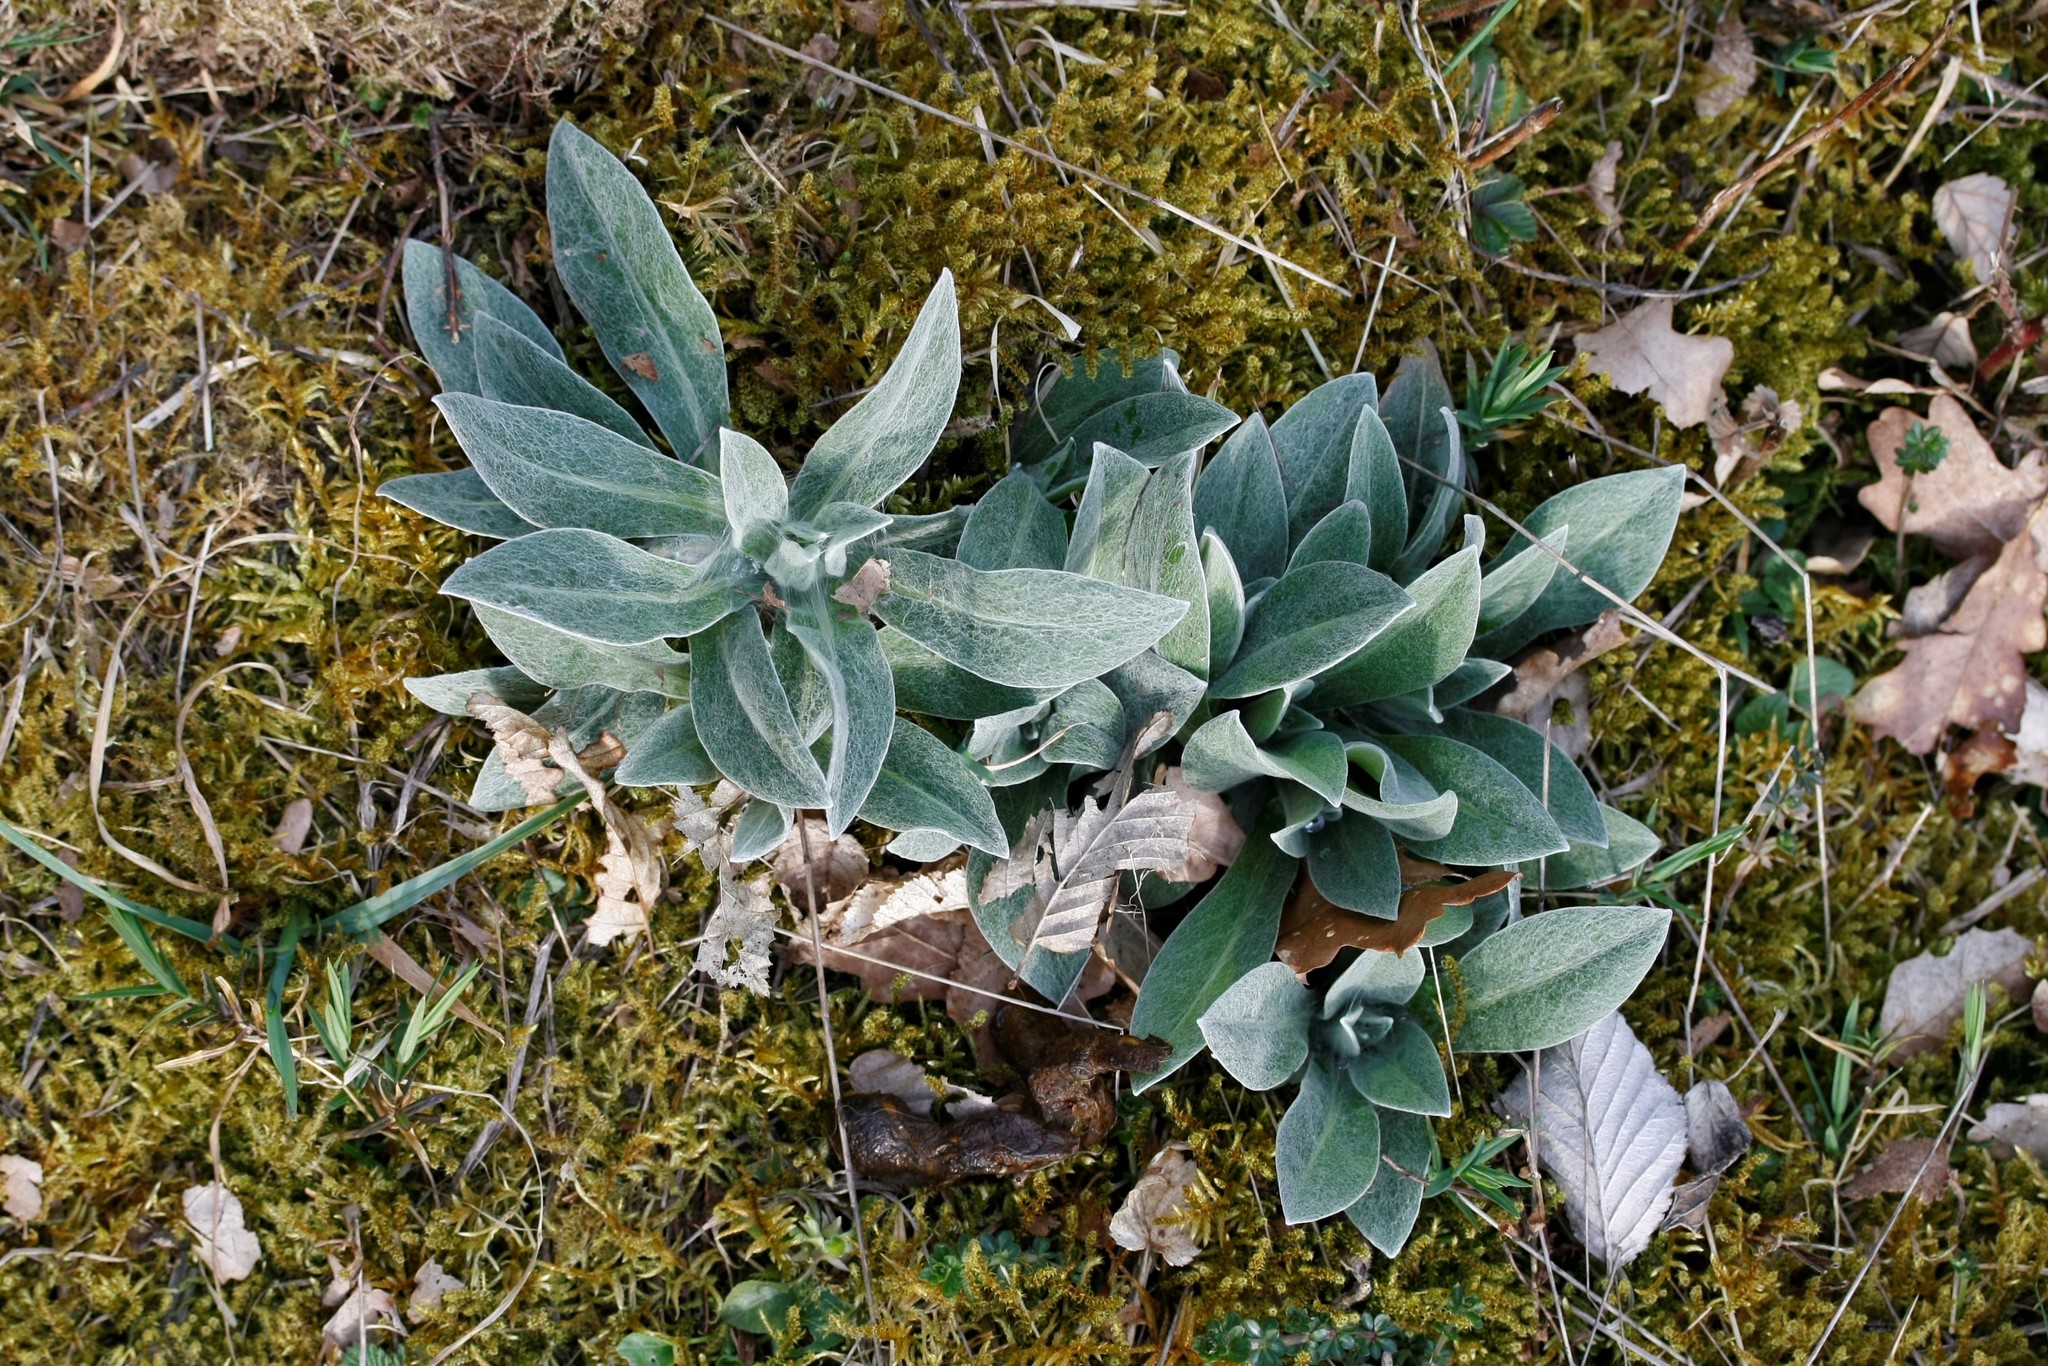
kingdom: Plantae
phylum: Tracheophyta
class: Magnoliopsida
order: Asterales
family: Asteraceae
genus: Centaurea
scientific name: Centaurea montana
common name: Perennial cornflower
